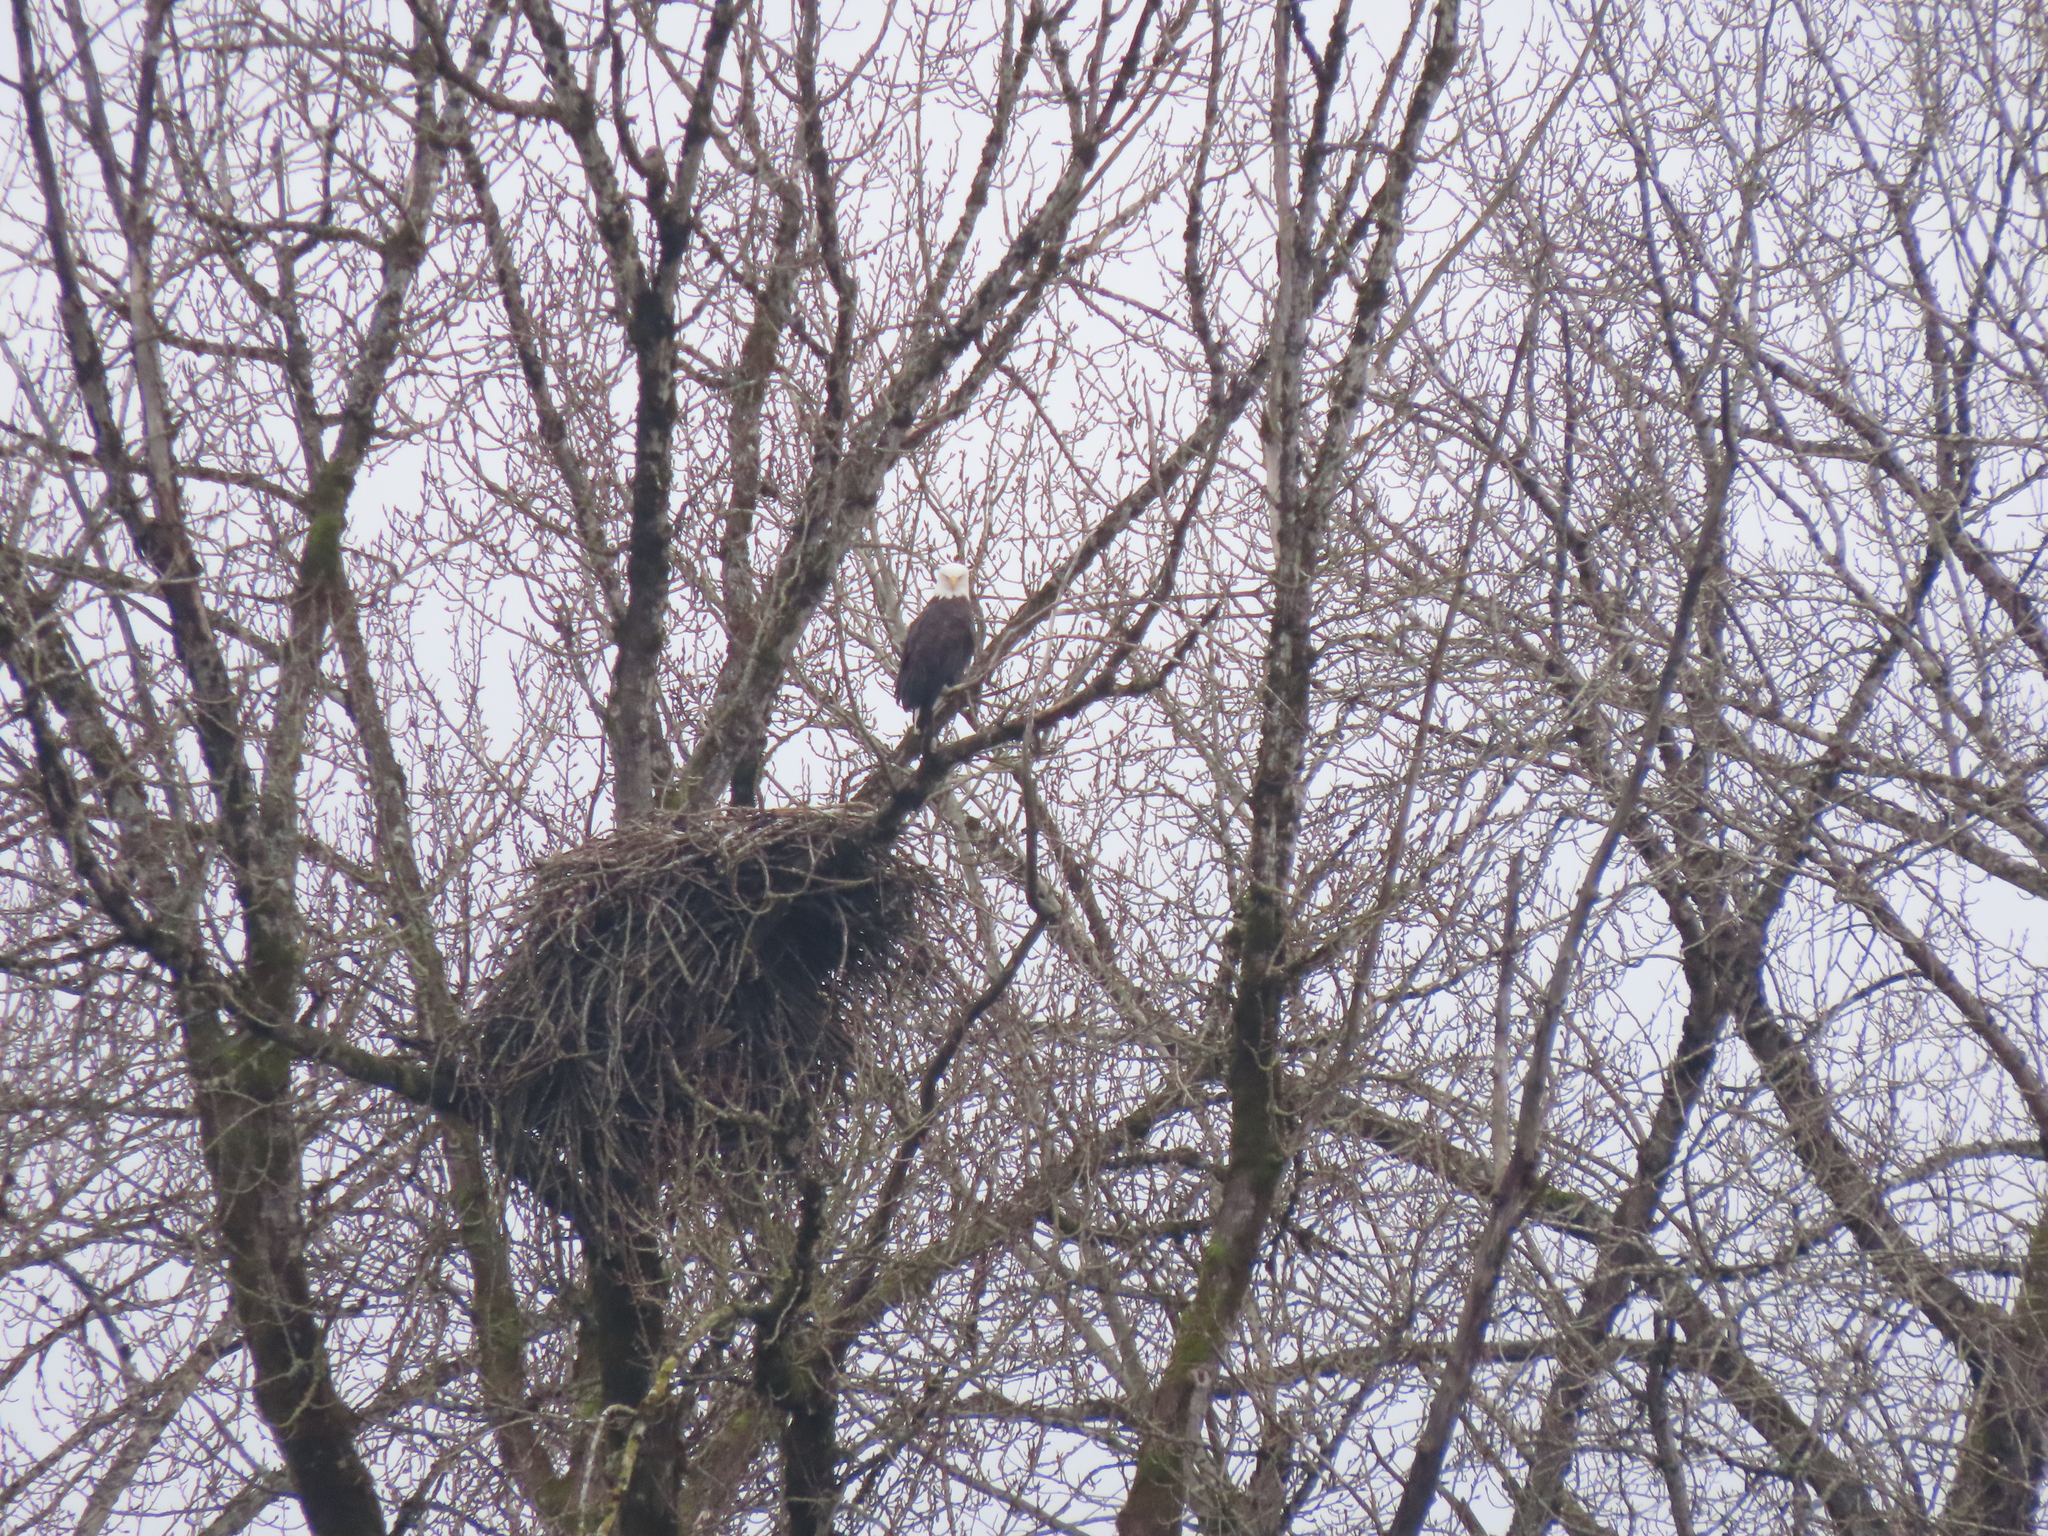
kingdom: Animalia
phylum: Chordata
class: Aves
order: Accipitriformes
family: Accipitridae
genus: Haliaeetus
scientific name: Haliaeetus leucocephalus
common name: Bald eagle
